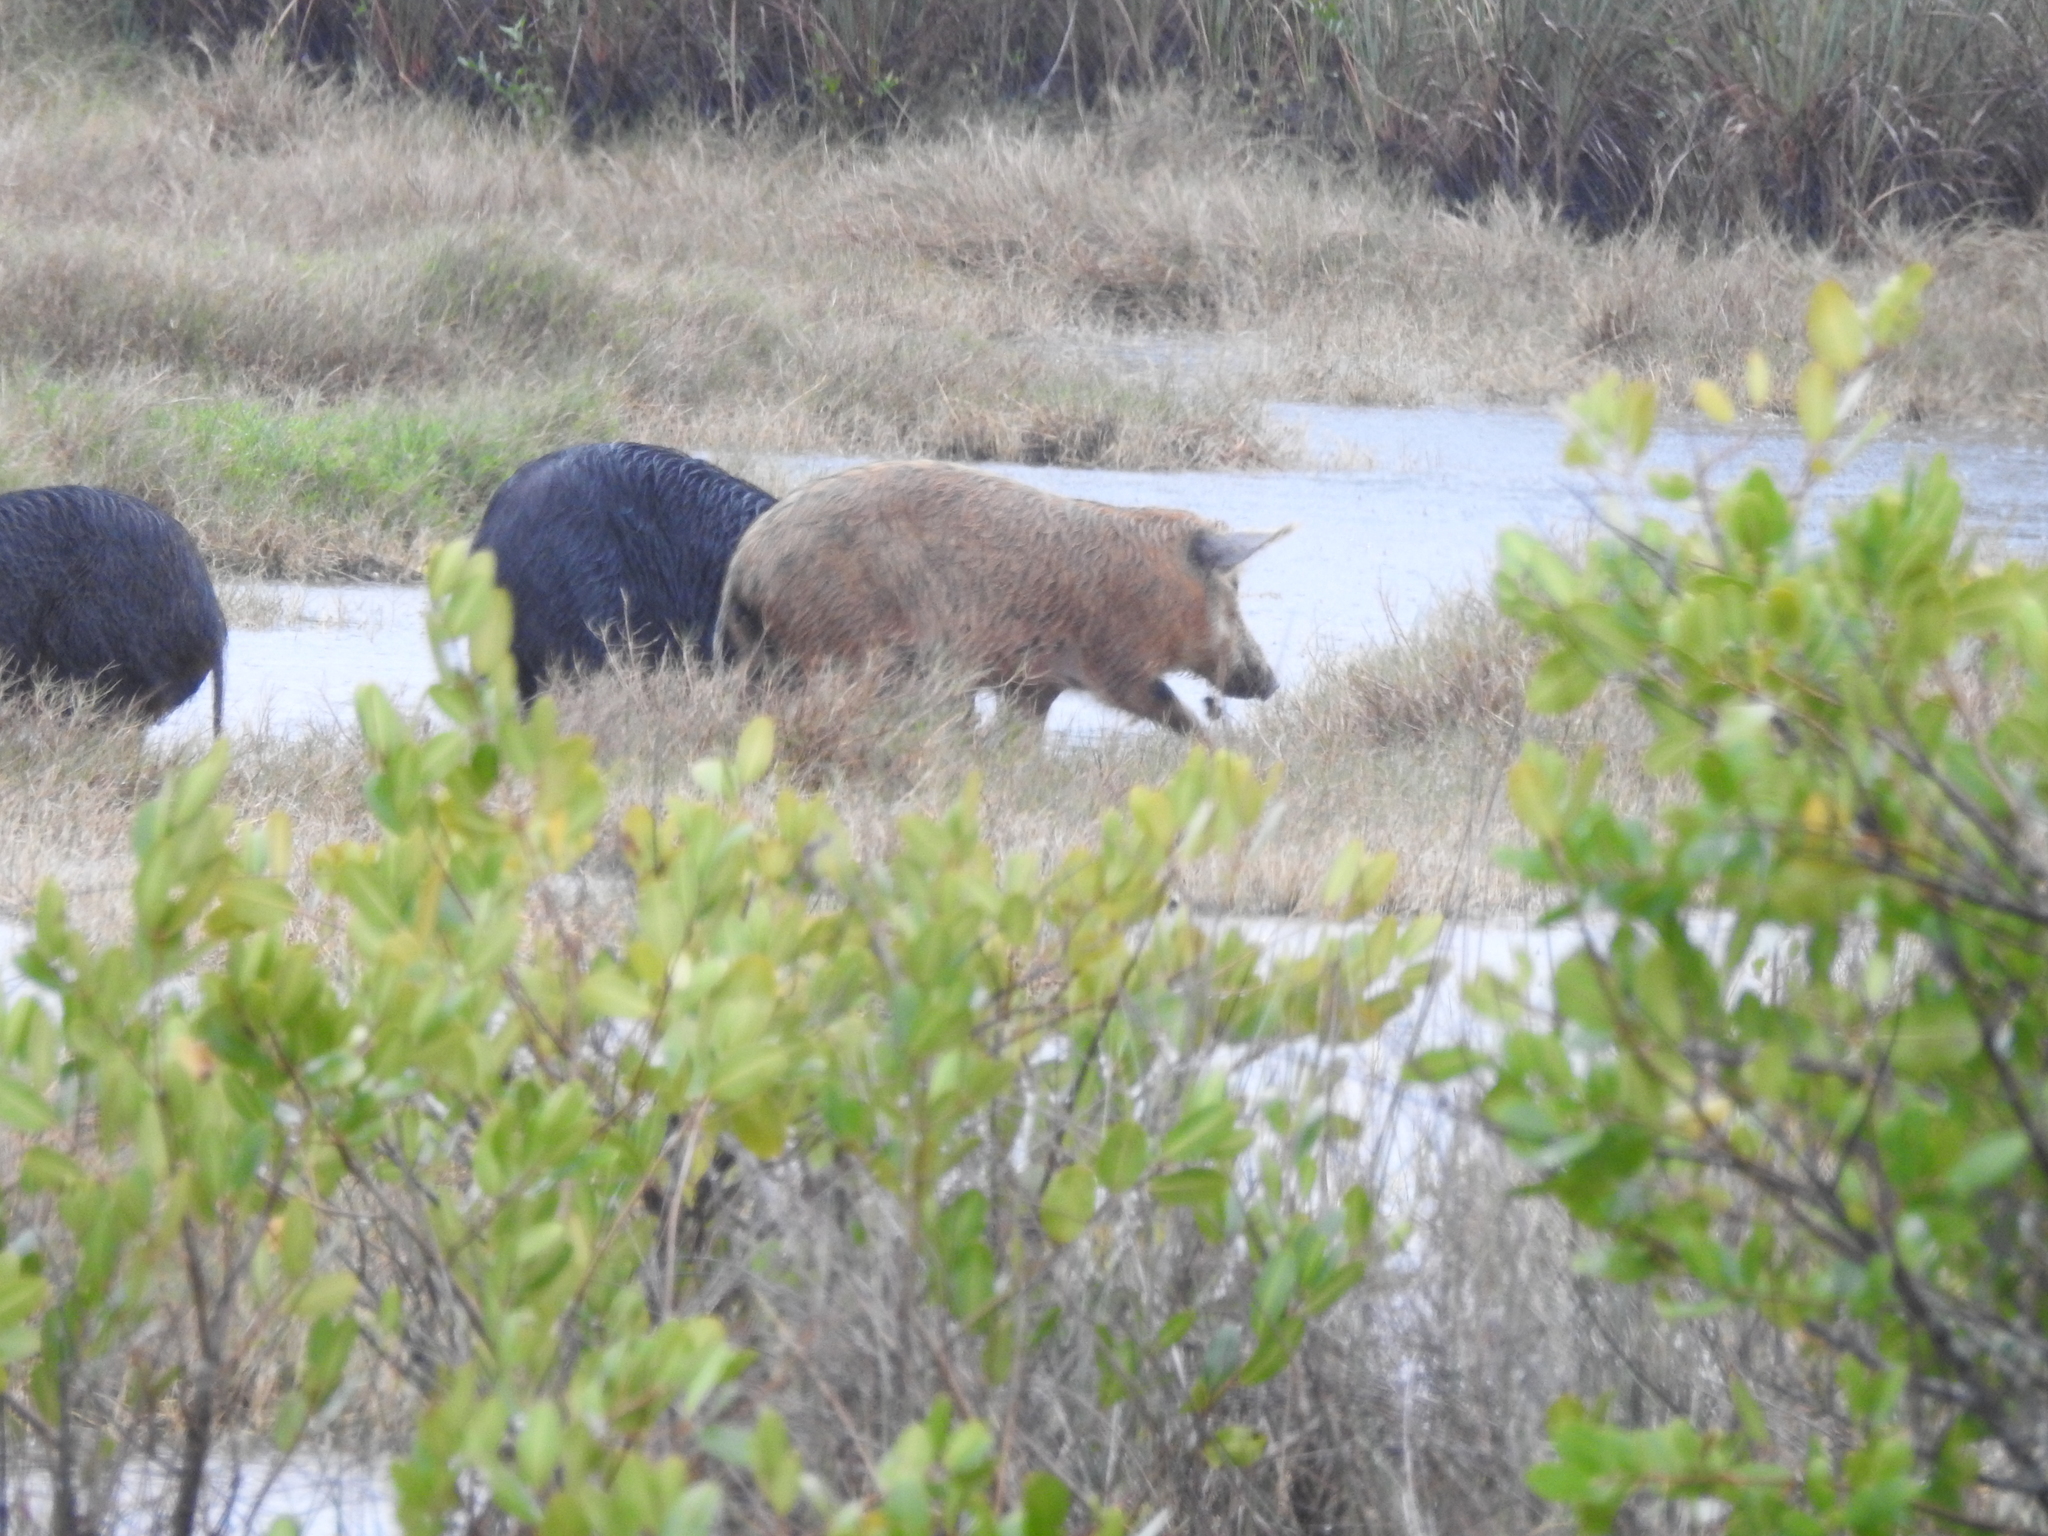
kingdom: Animalia
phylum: Chordata
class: Mammalia
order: Artiodactyla
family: Suidae
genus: Sus
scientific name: Sus scrofa
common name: Wild boar
